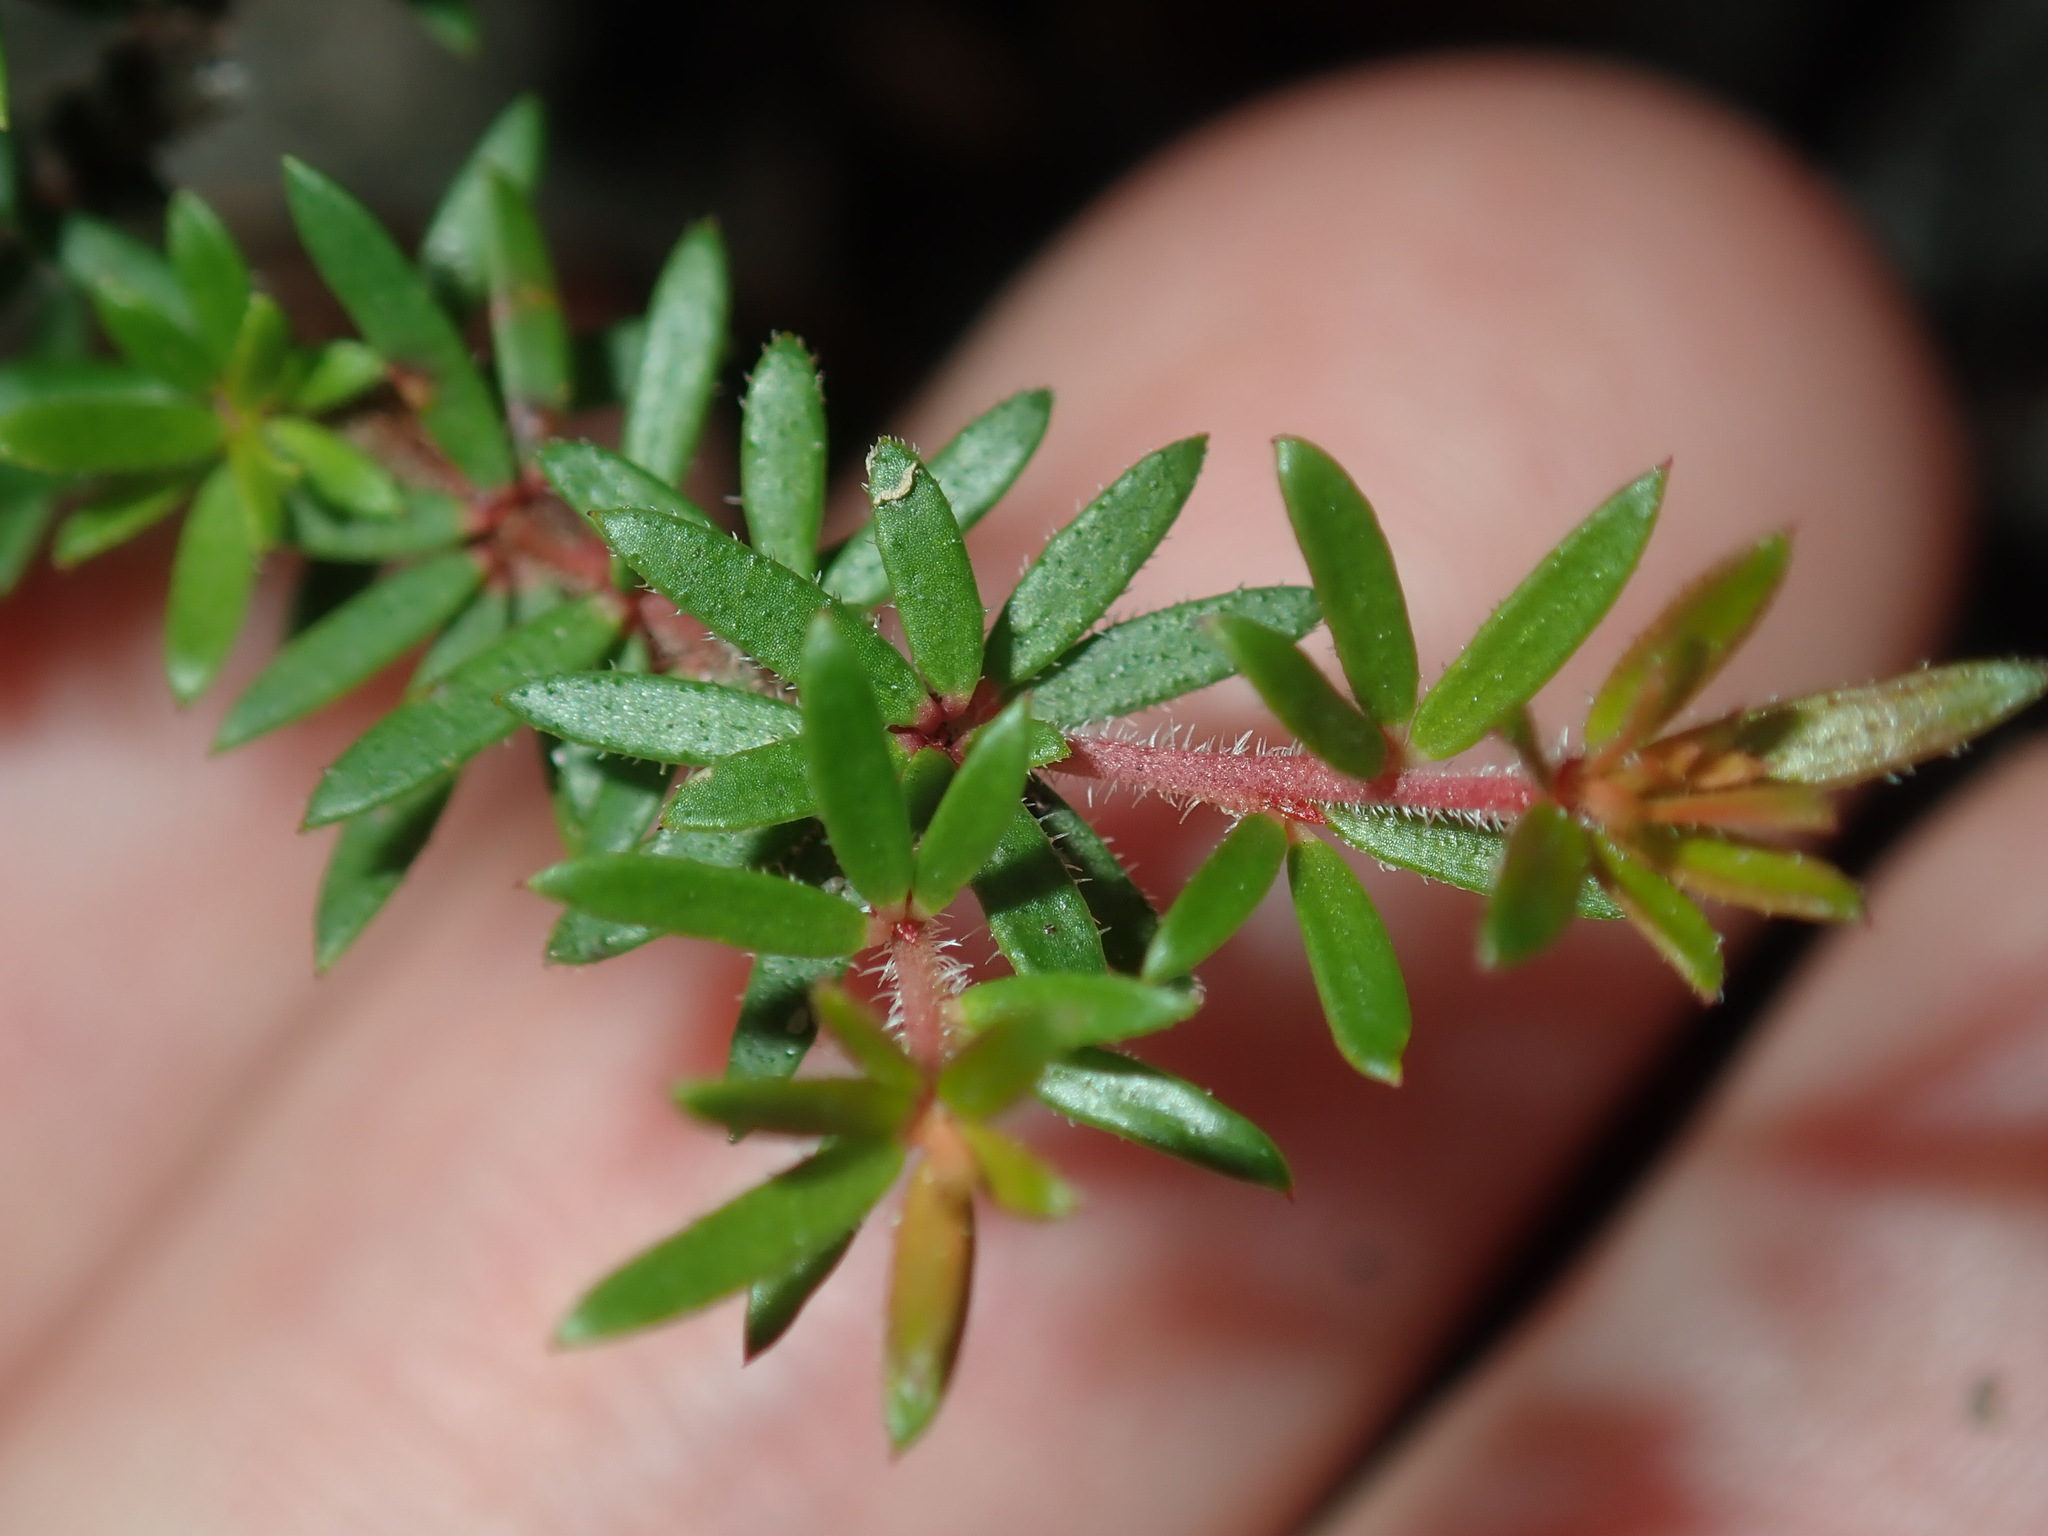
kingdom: Plantae
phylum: Tracheophyta
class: Magnoliopsida
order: Malpighiales
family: Picrodendraceae
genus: Micrantheum
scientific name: Micrantheum ericoides
